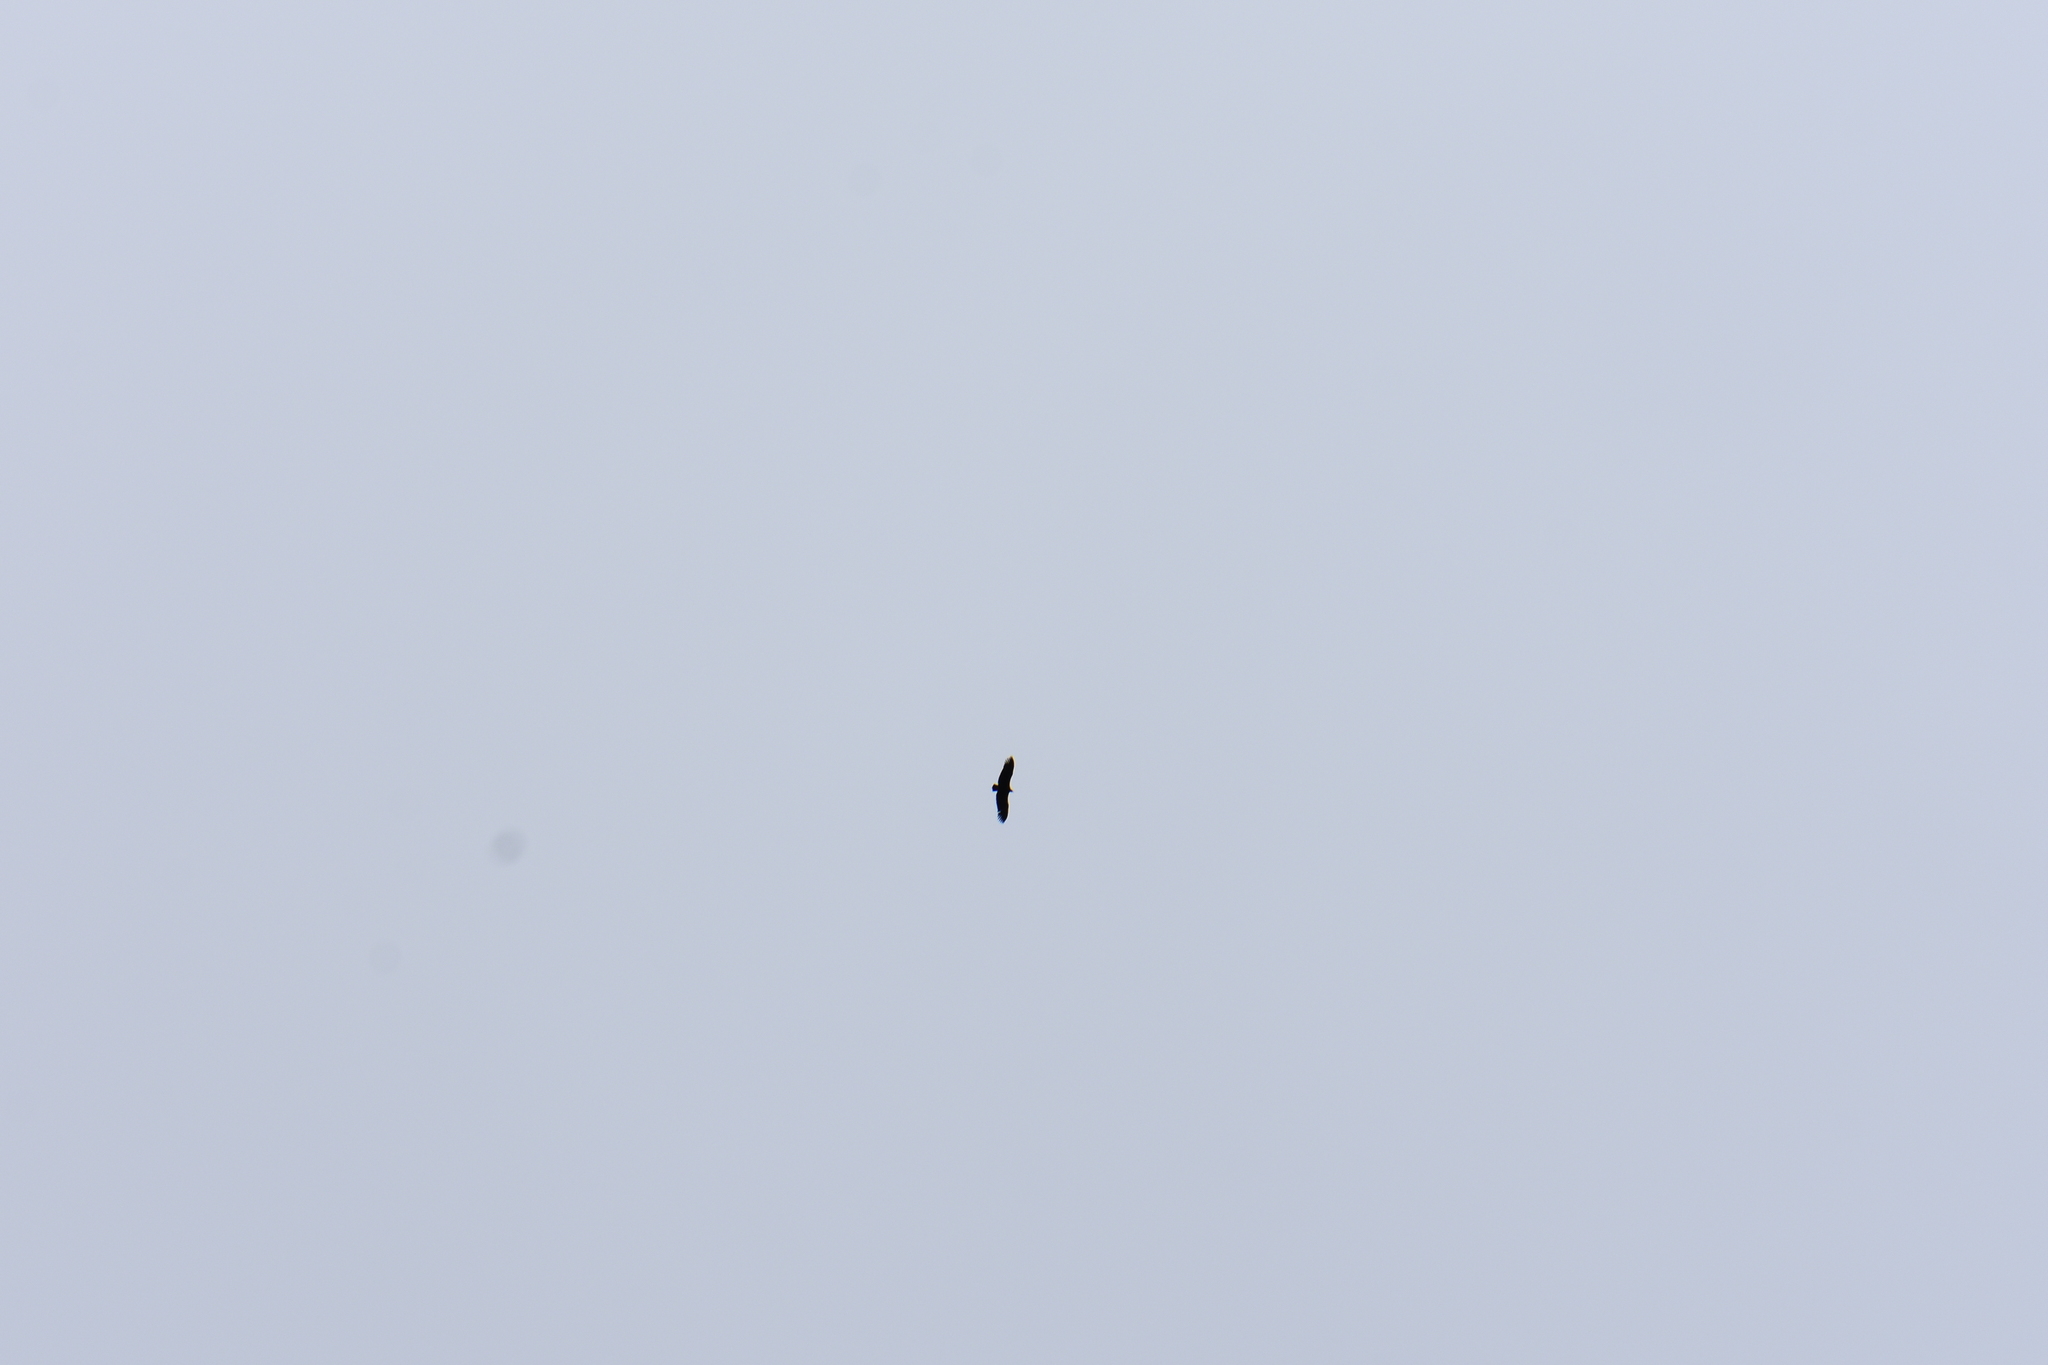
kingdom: Animalia
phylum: Chordata
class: Aves
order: Accipitriformes
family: Accipitridae
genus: Gyps
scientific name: Gyps fulvus
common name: Griffon vulture
